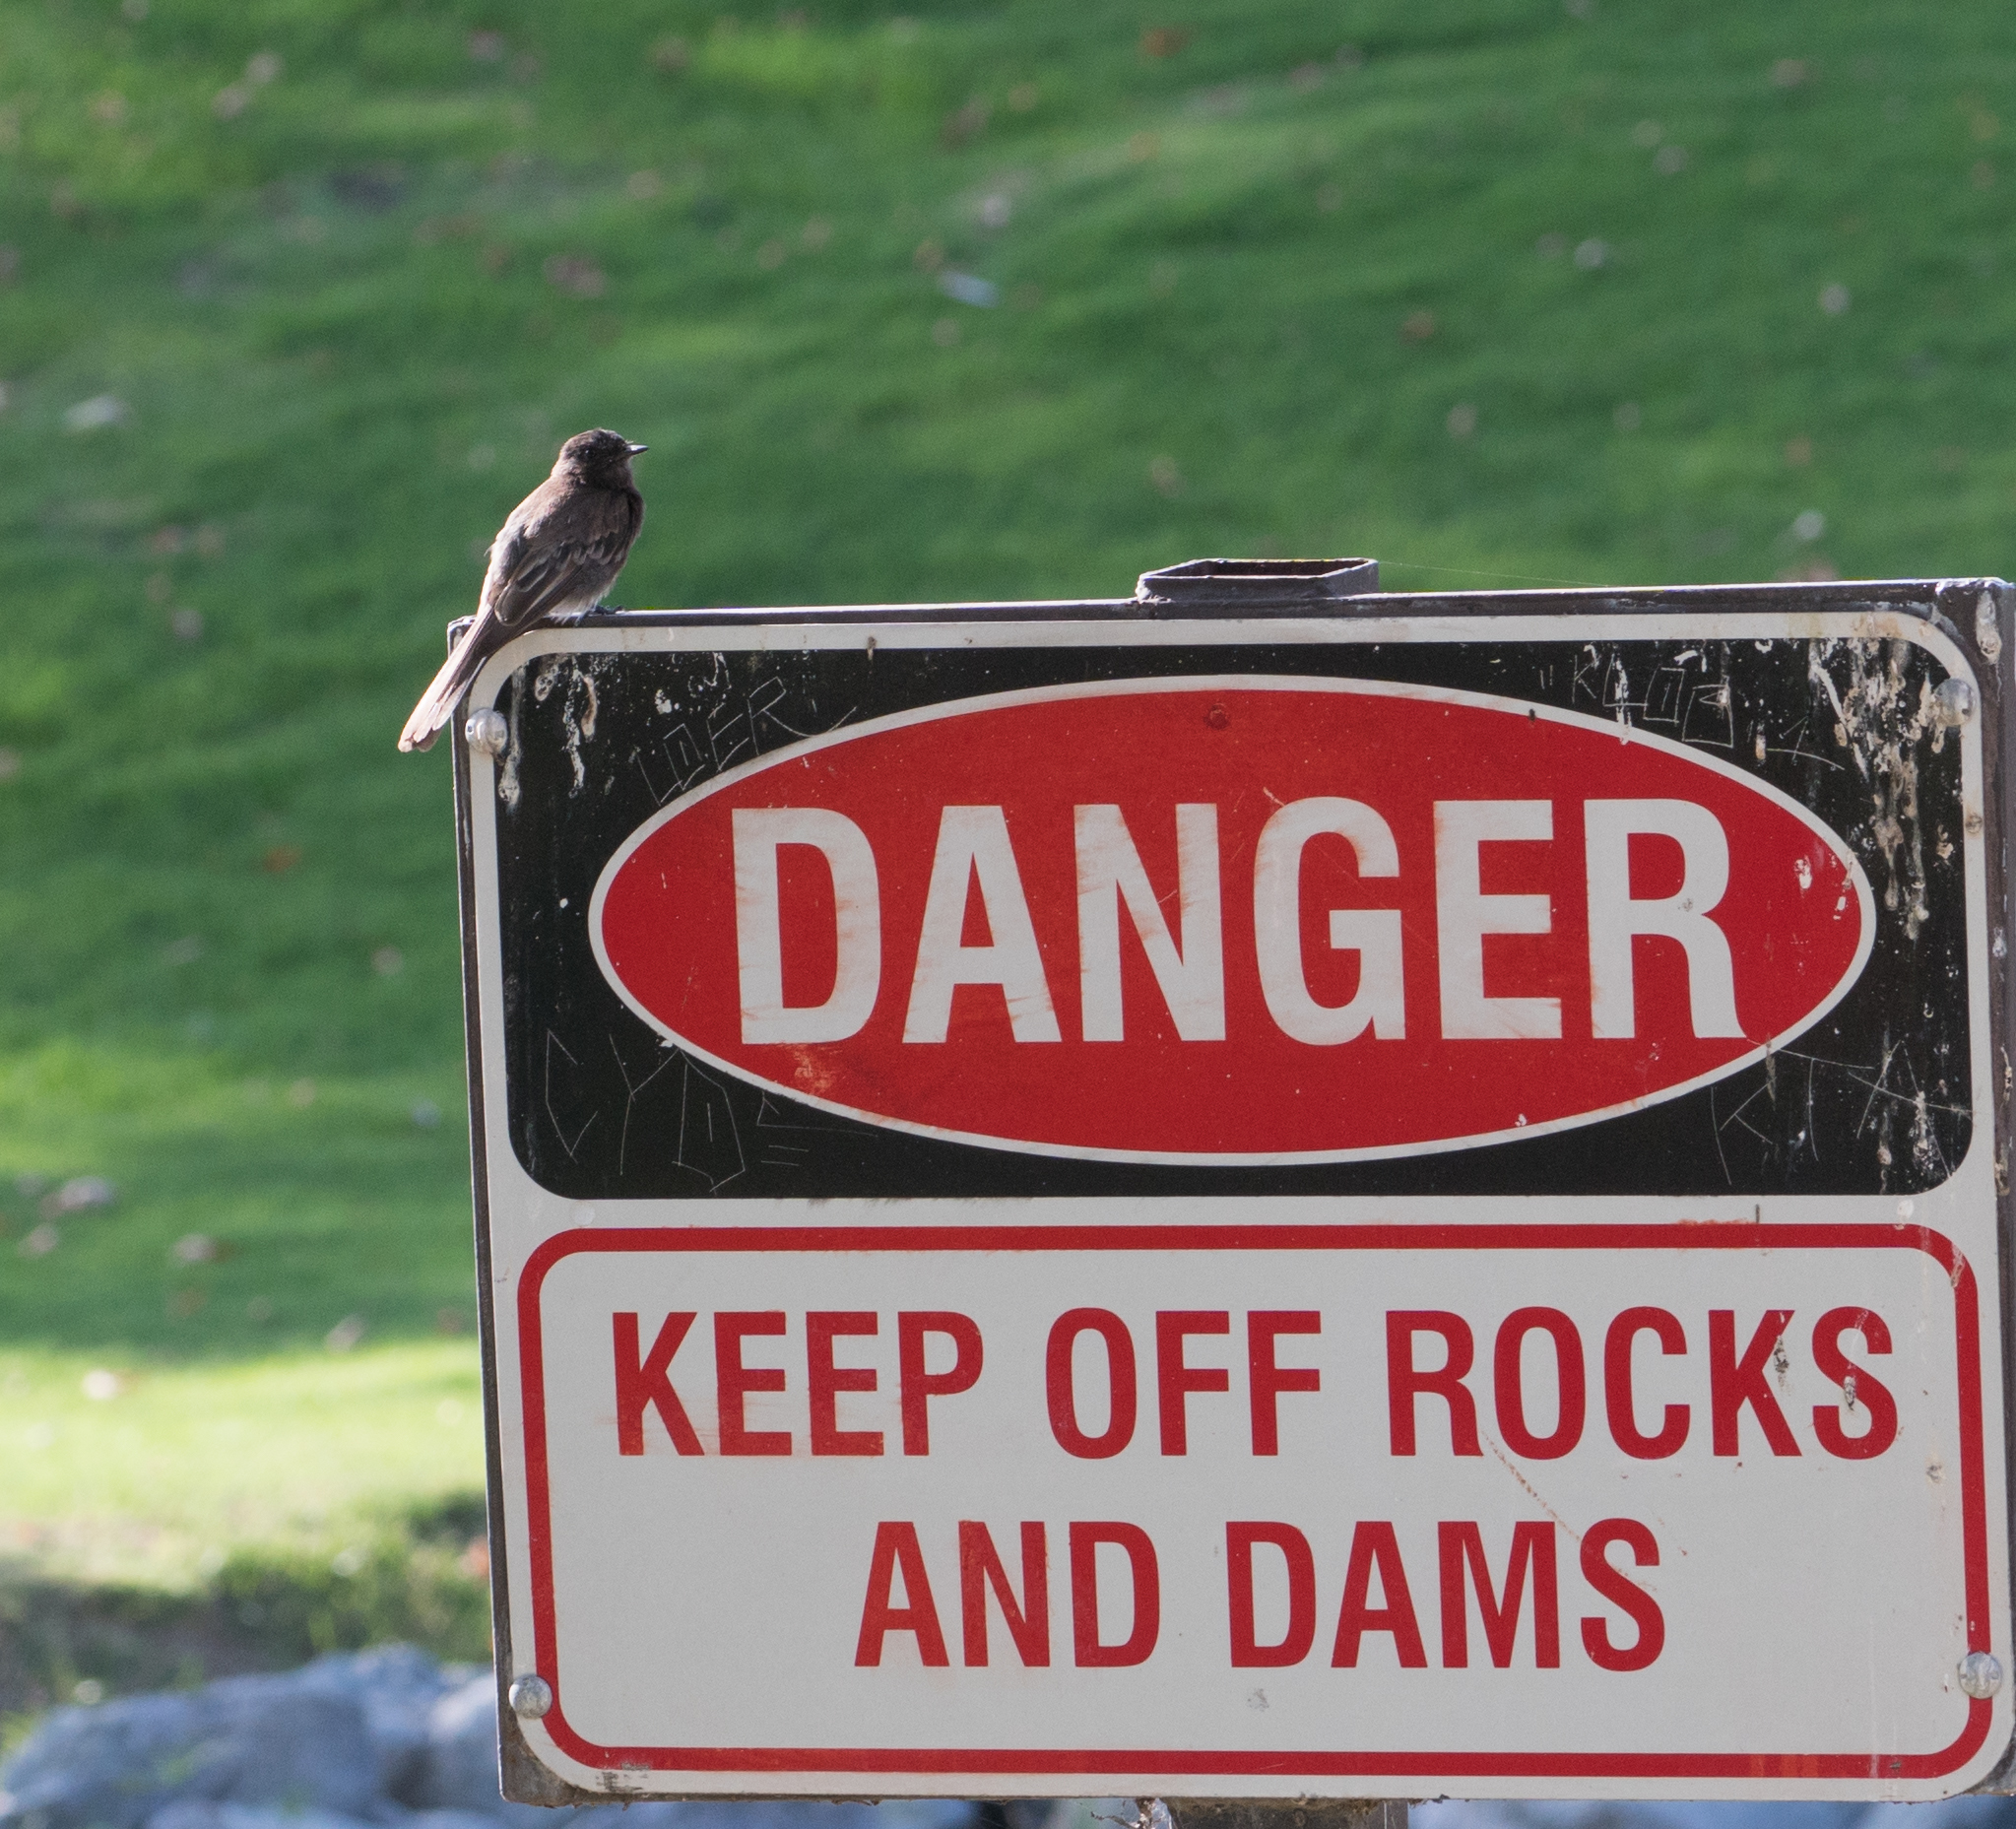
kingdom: Animalia
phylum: Chordata
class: Aves
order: Passeriformes
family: Tyrannidae
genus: Sayornis
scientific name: Sayornis nigricans
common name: Black phoebe
